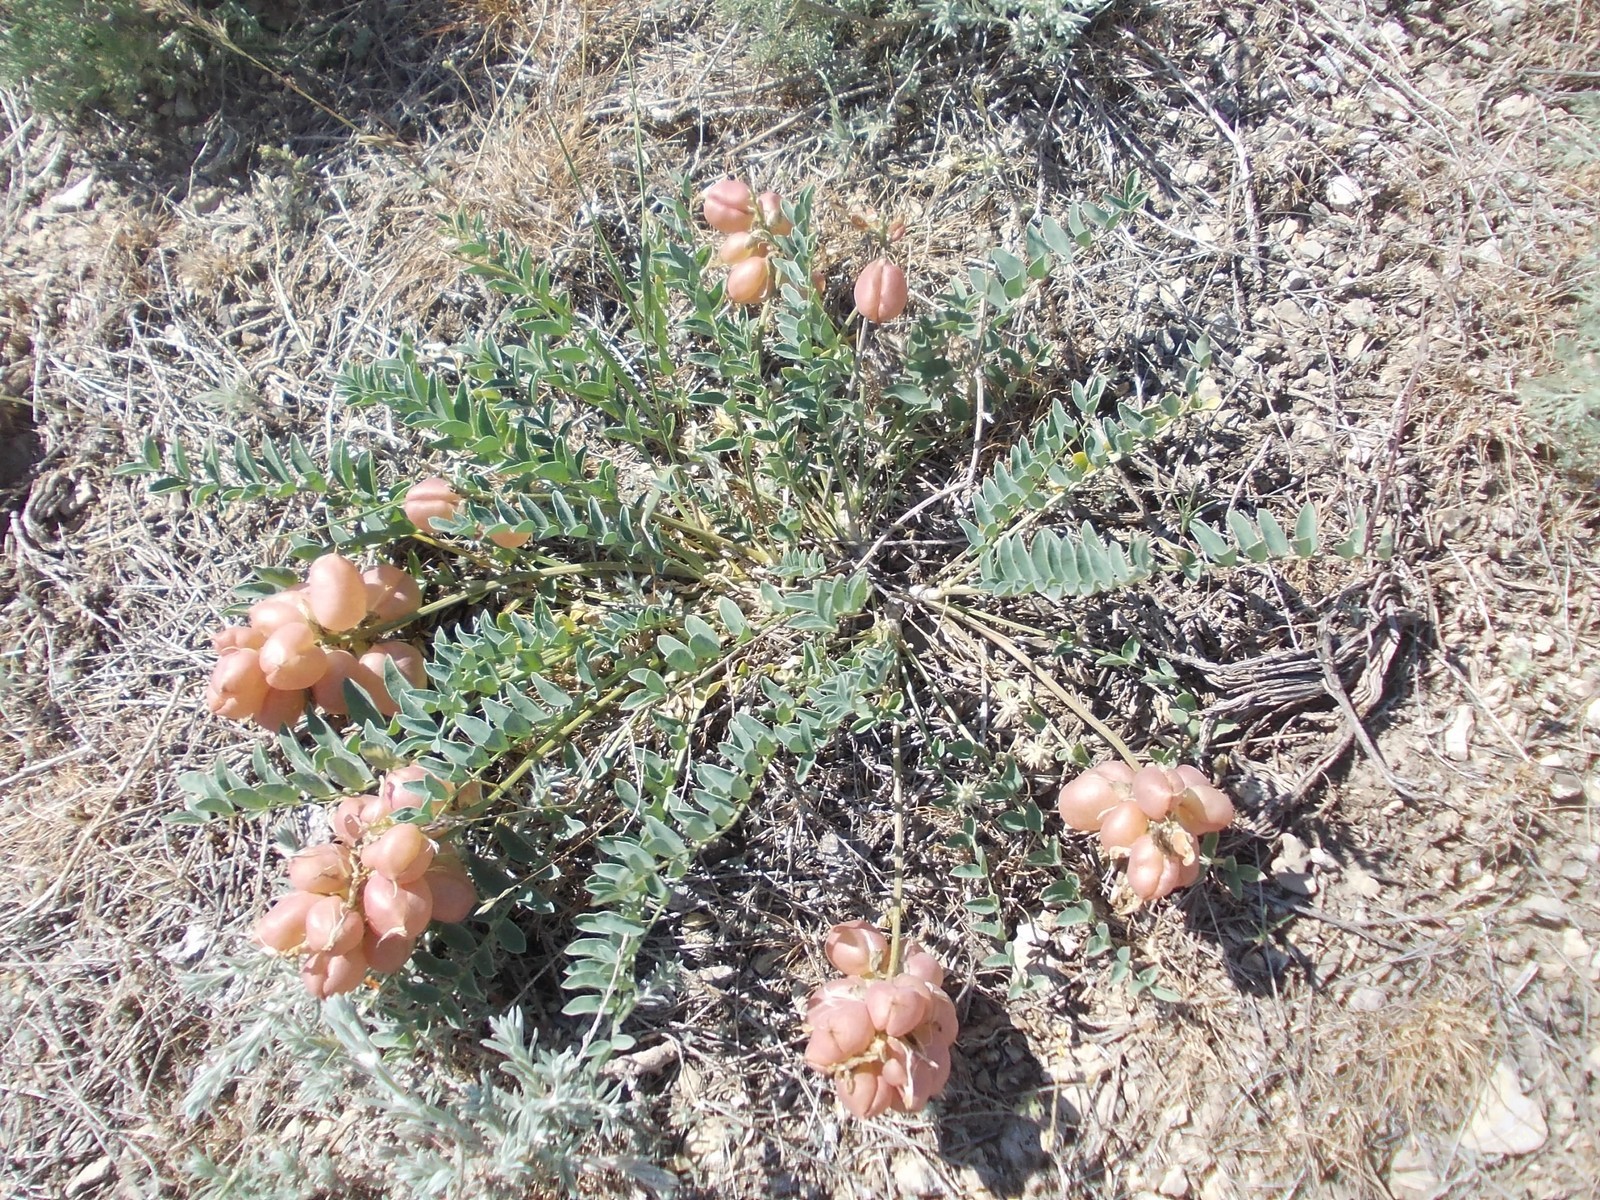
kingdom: Plantae
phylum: Tracheophyta
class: Magnoliopsida
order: Fabales
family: Fabaceae
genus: Astragalus
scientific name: Astragalus physodes
